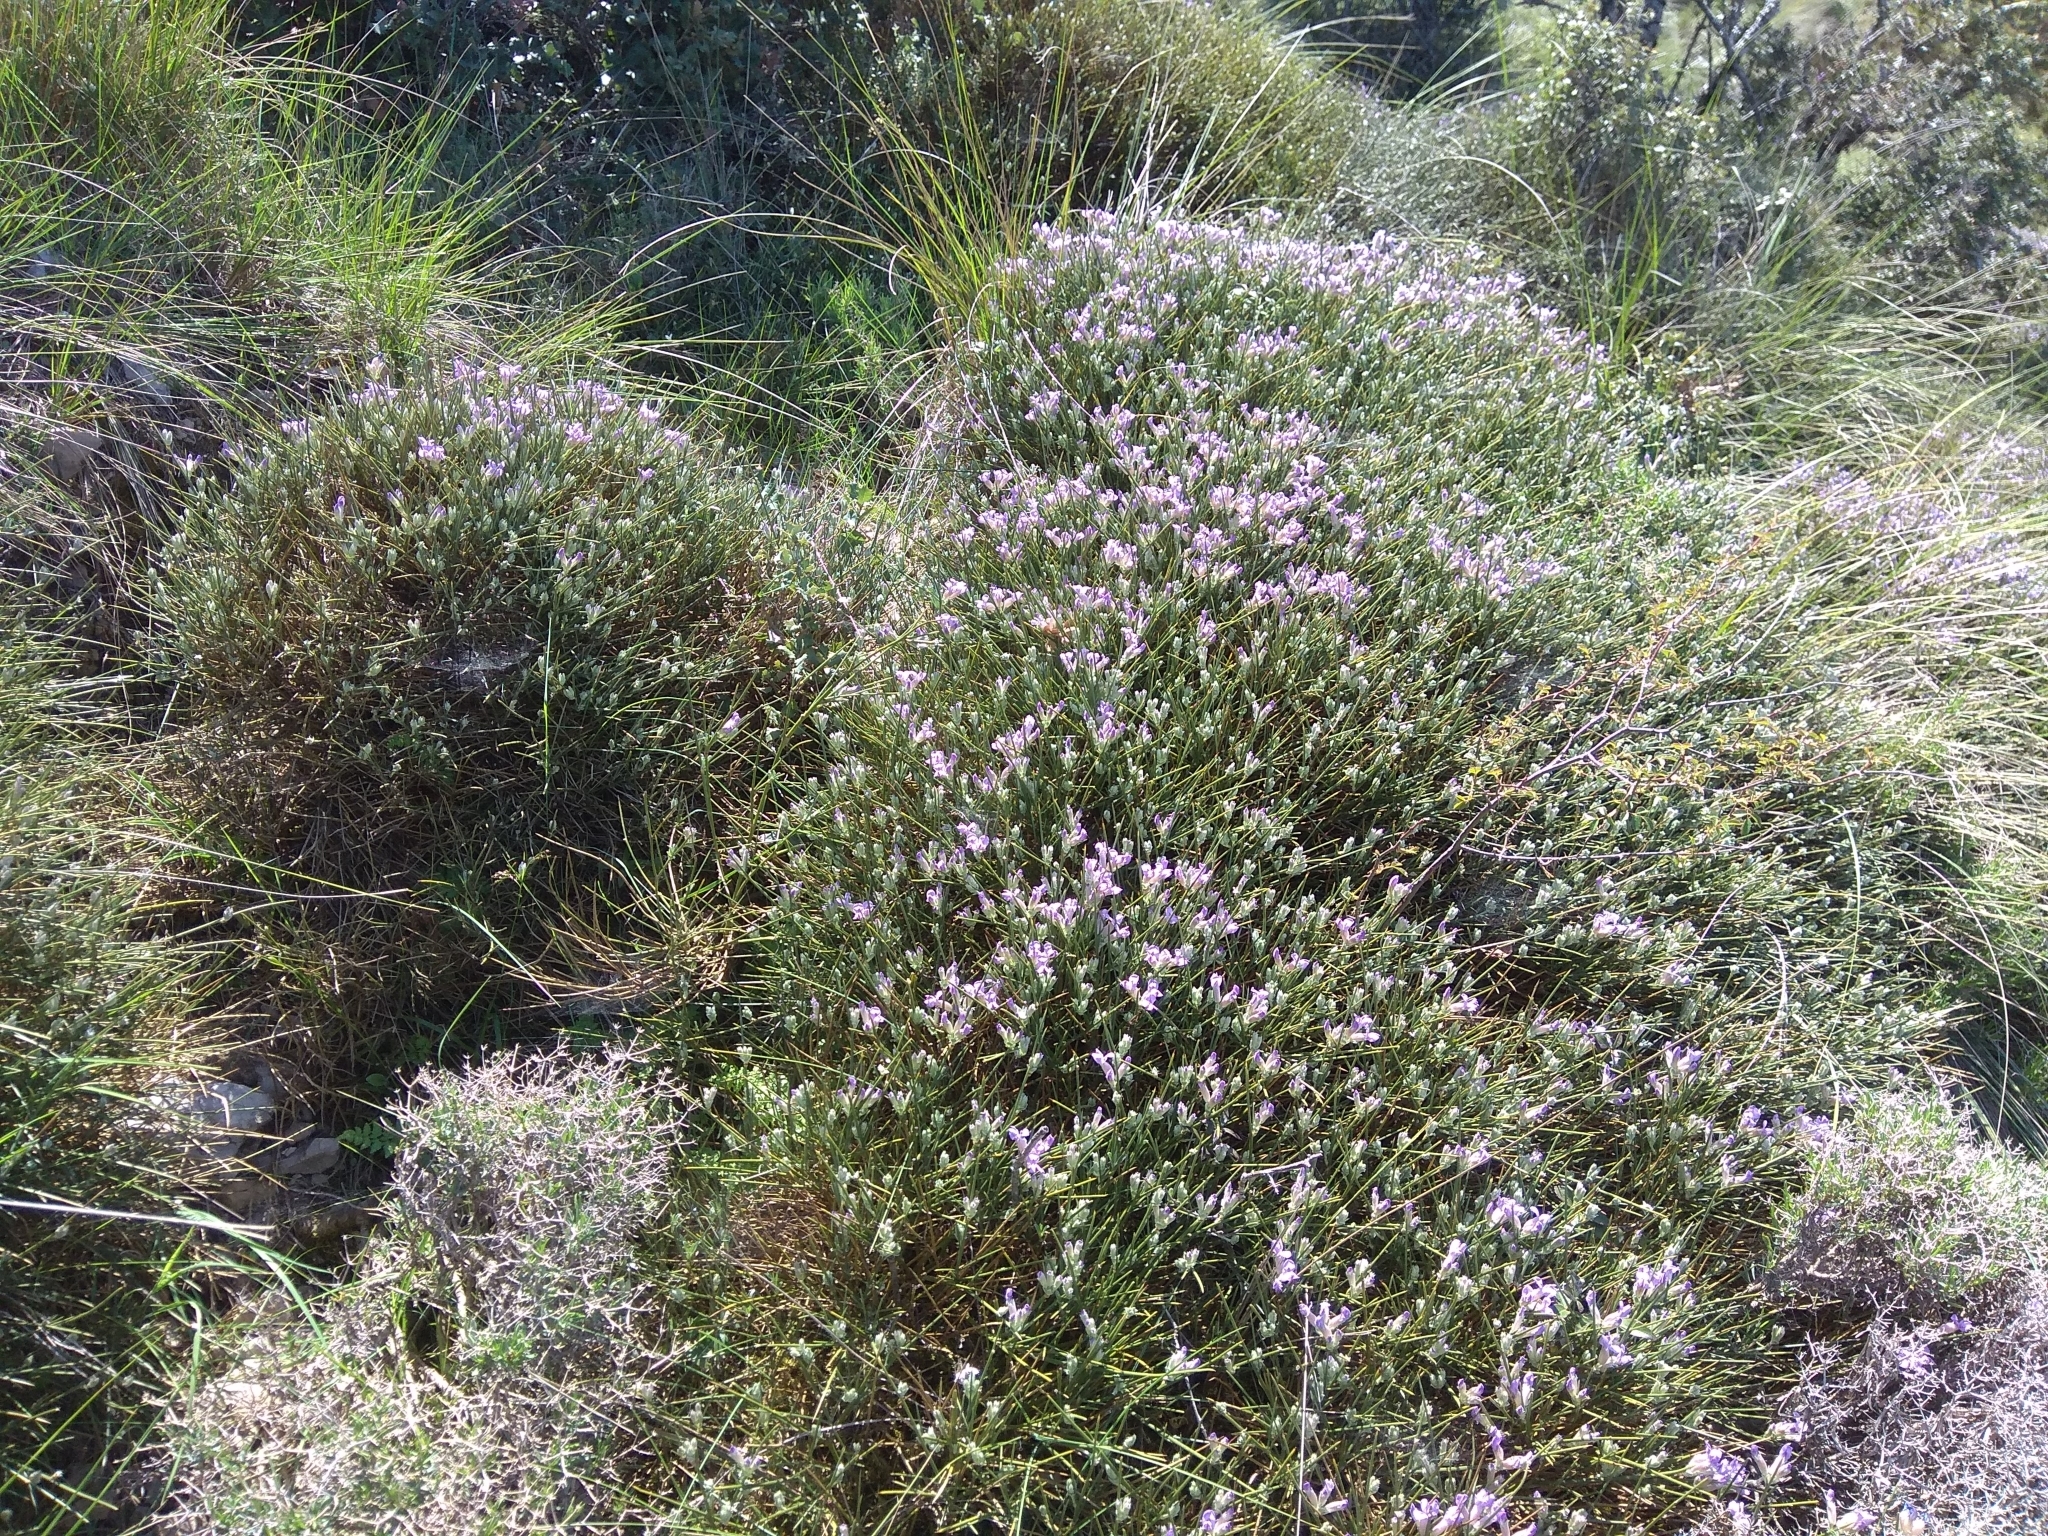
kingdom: Plantae
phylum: Tracheophyta
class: Magnoliopsida
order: Fabales
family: Fabaceae
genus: Erinacea
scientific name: Erinacea anthyllis
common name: Hedgehog-broom
